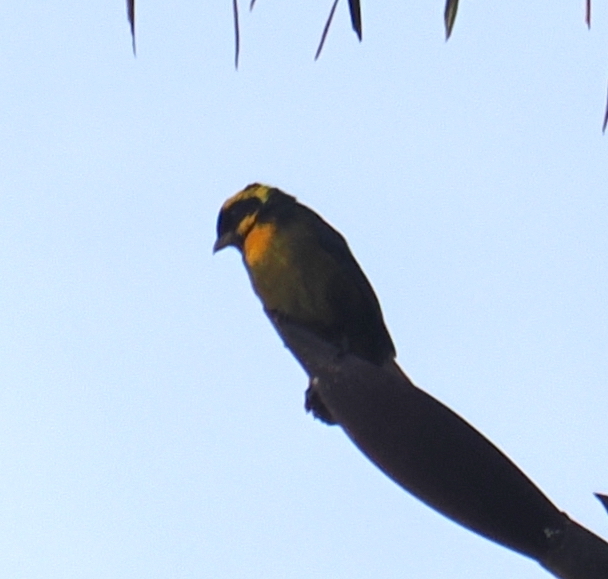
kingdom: Animalia
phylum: Chordata
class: Aves
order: Passeriformes
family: Thraupidae
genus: Bangsia
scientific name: Bangsia aureocincta
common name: Gold-ringed tanager
